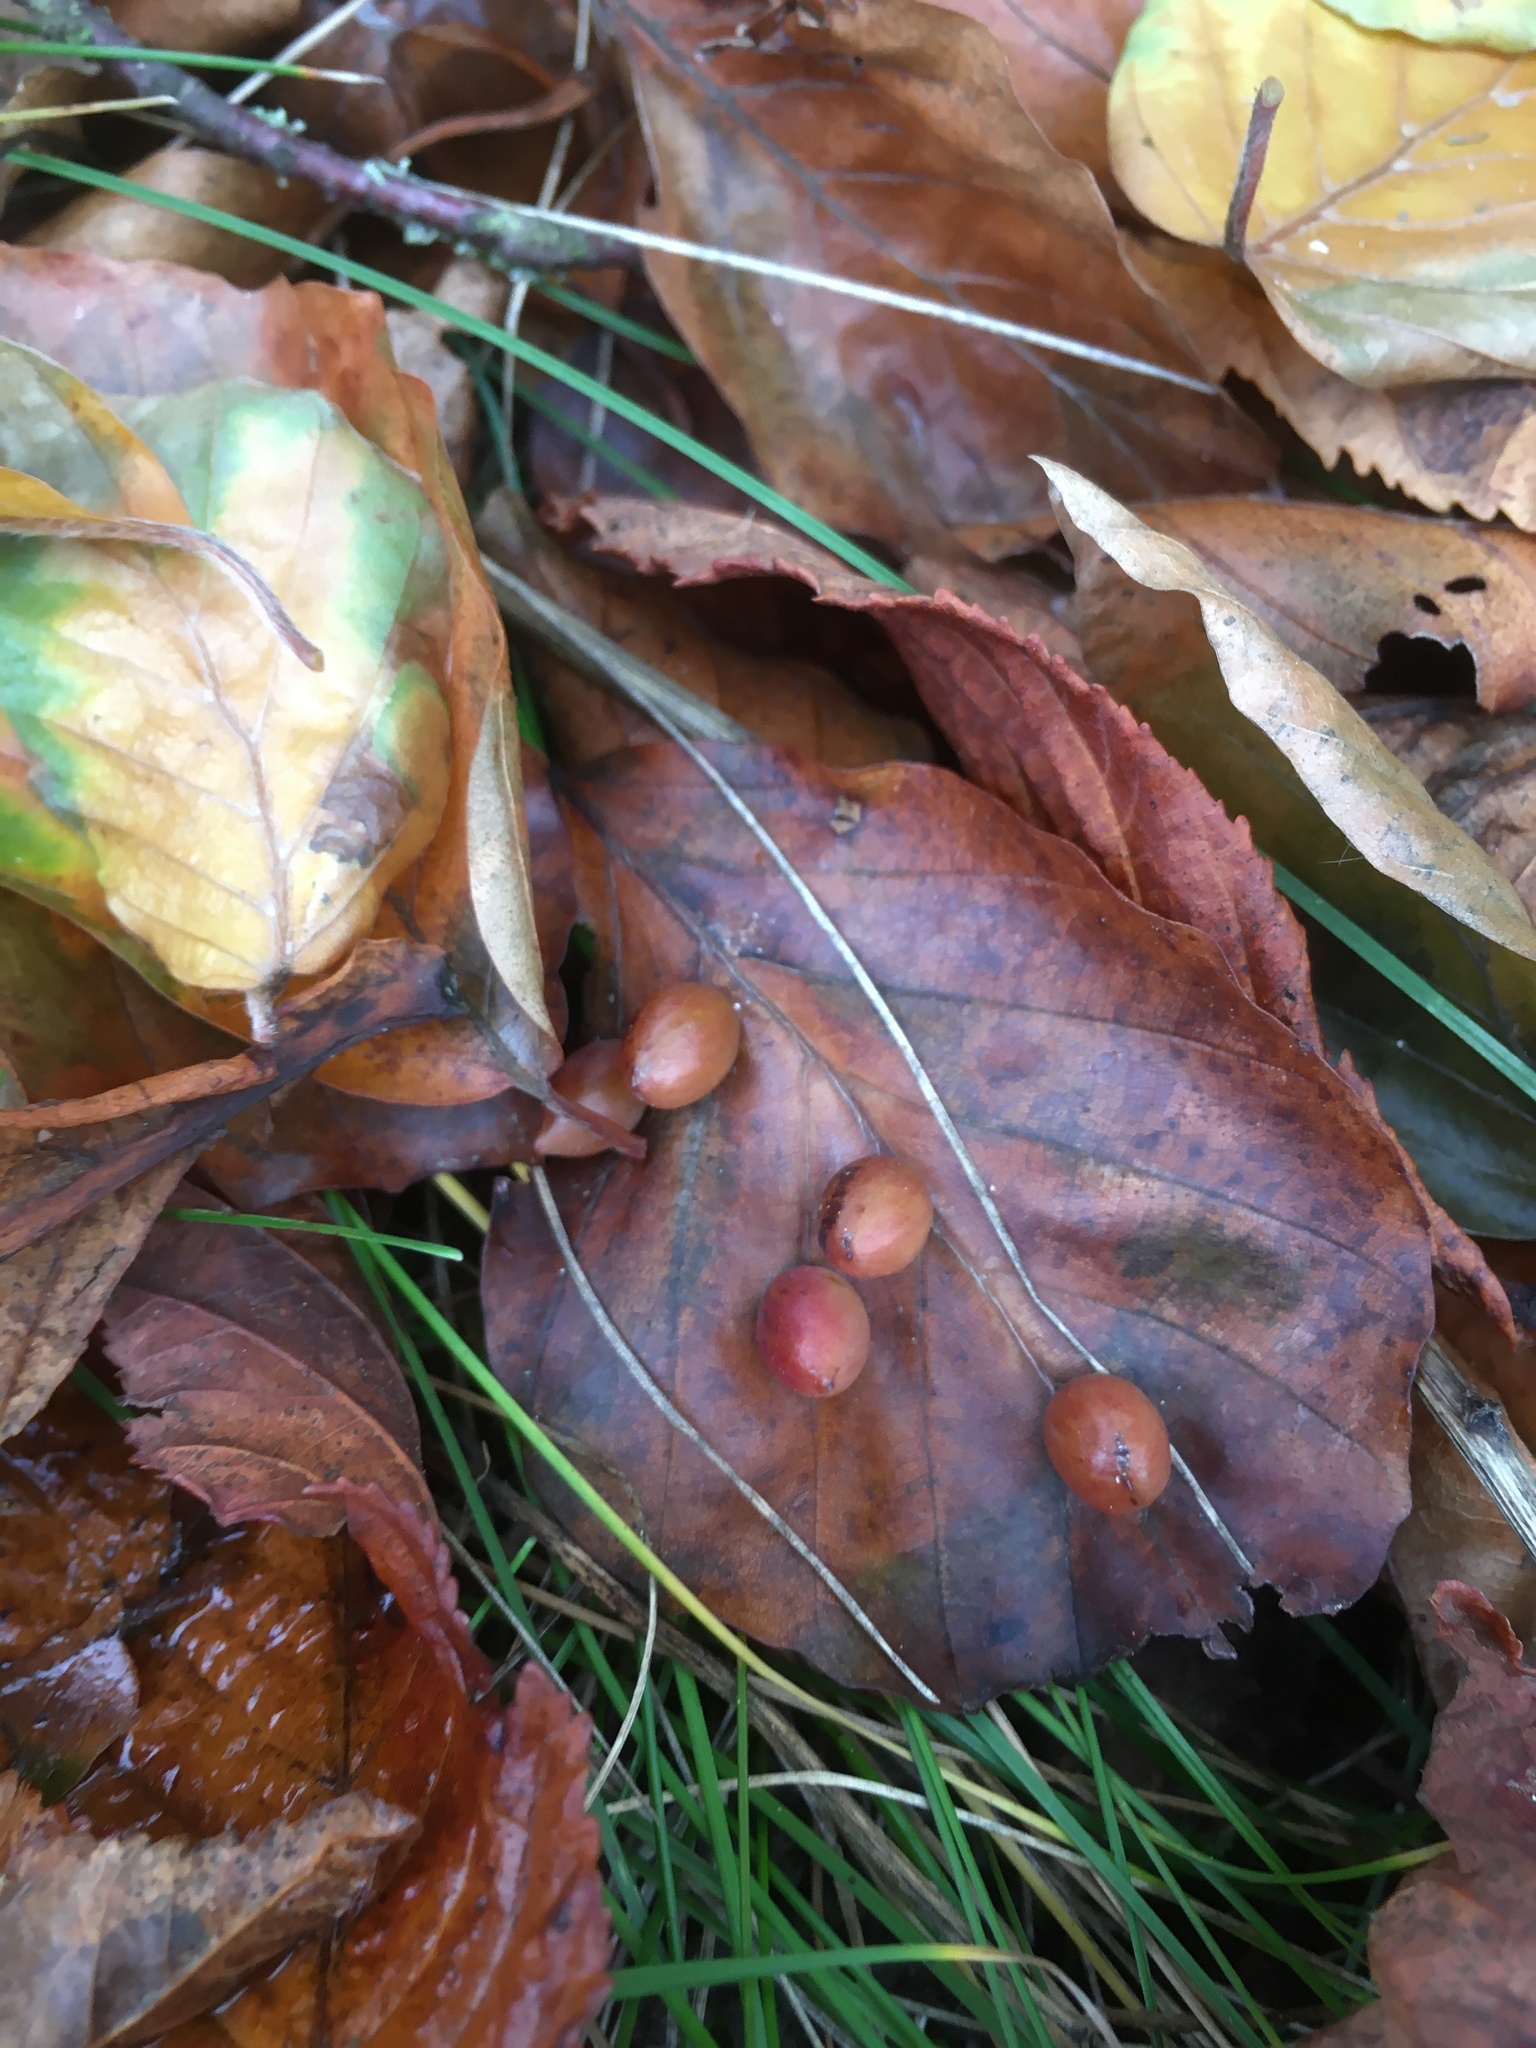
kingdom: Animalia
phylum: Arthropoda
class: Insecta
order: Diptera
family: Cecidomyiidae
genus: Mikiola
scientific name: Mikiola fagi
